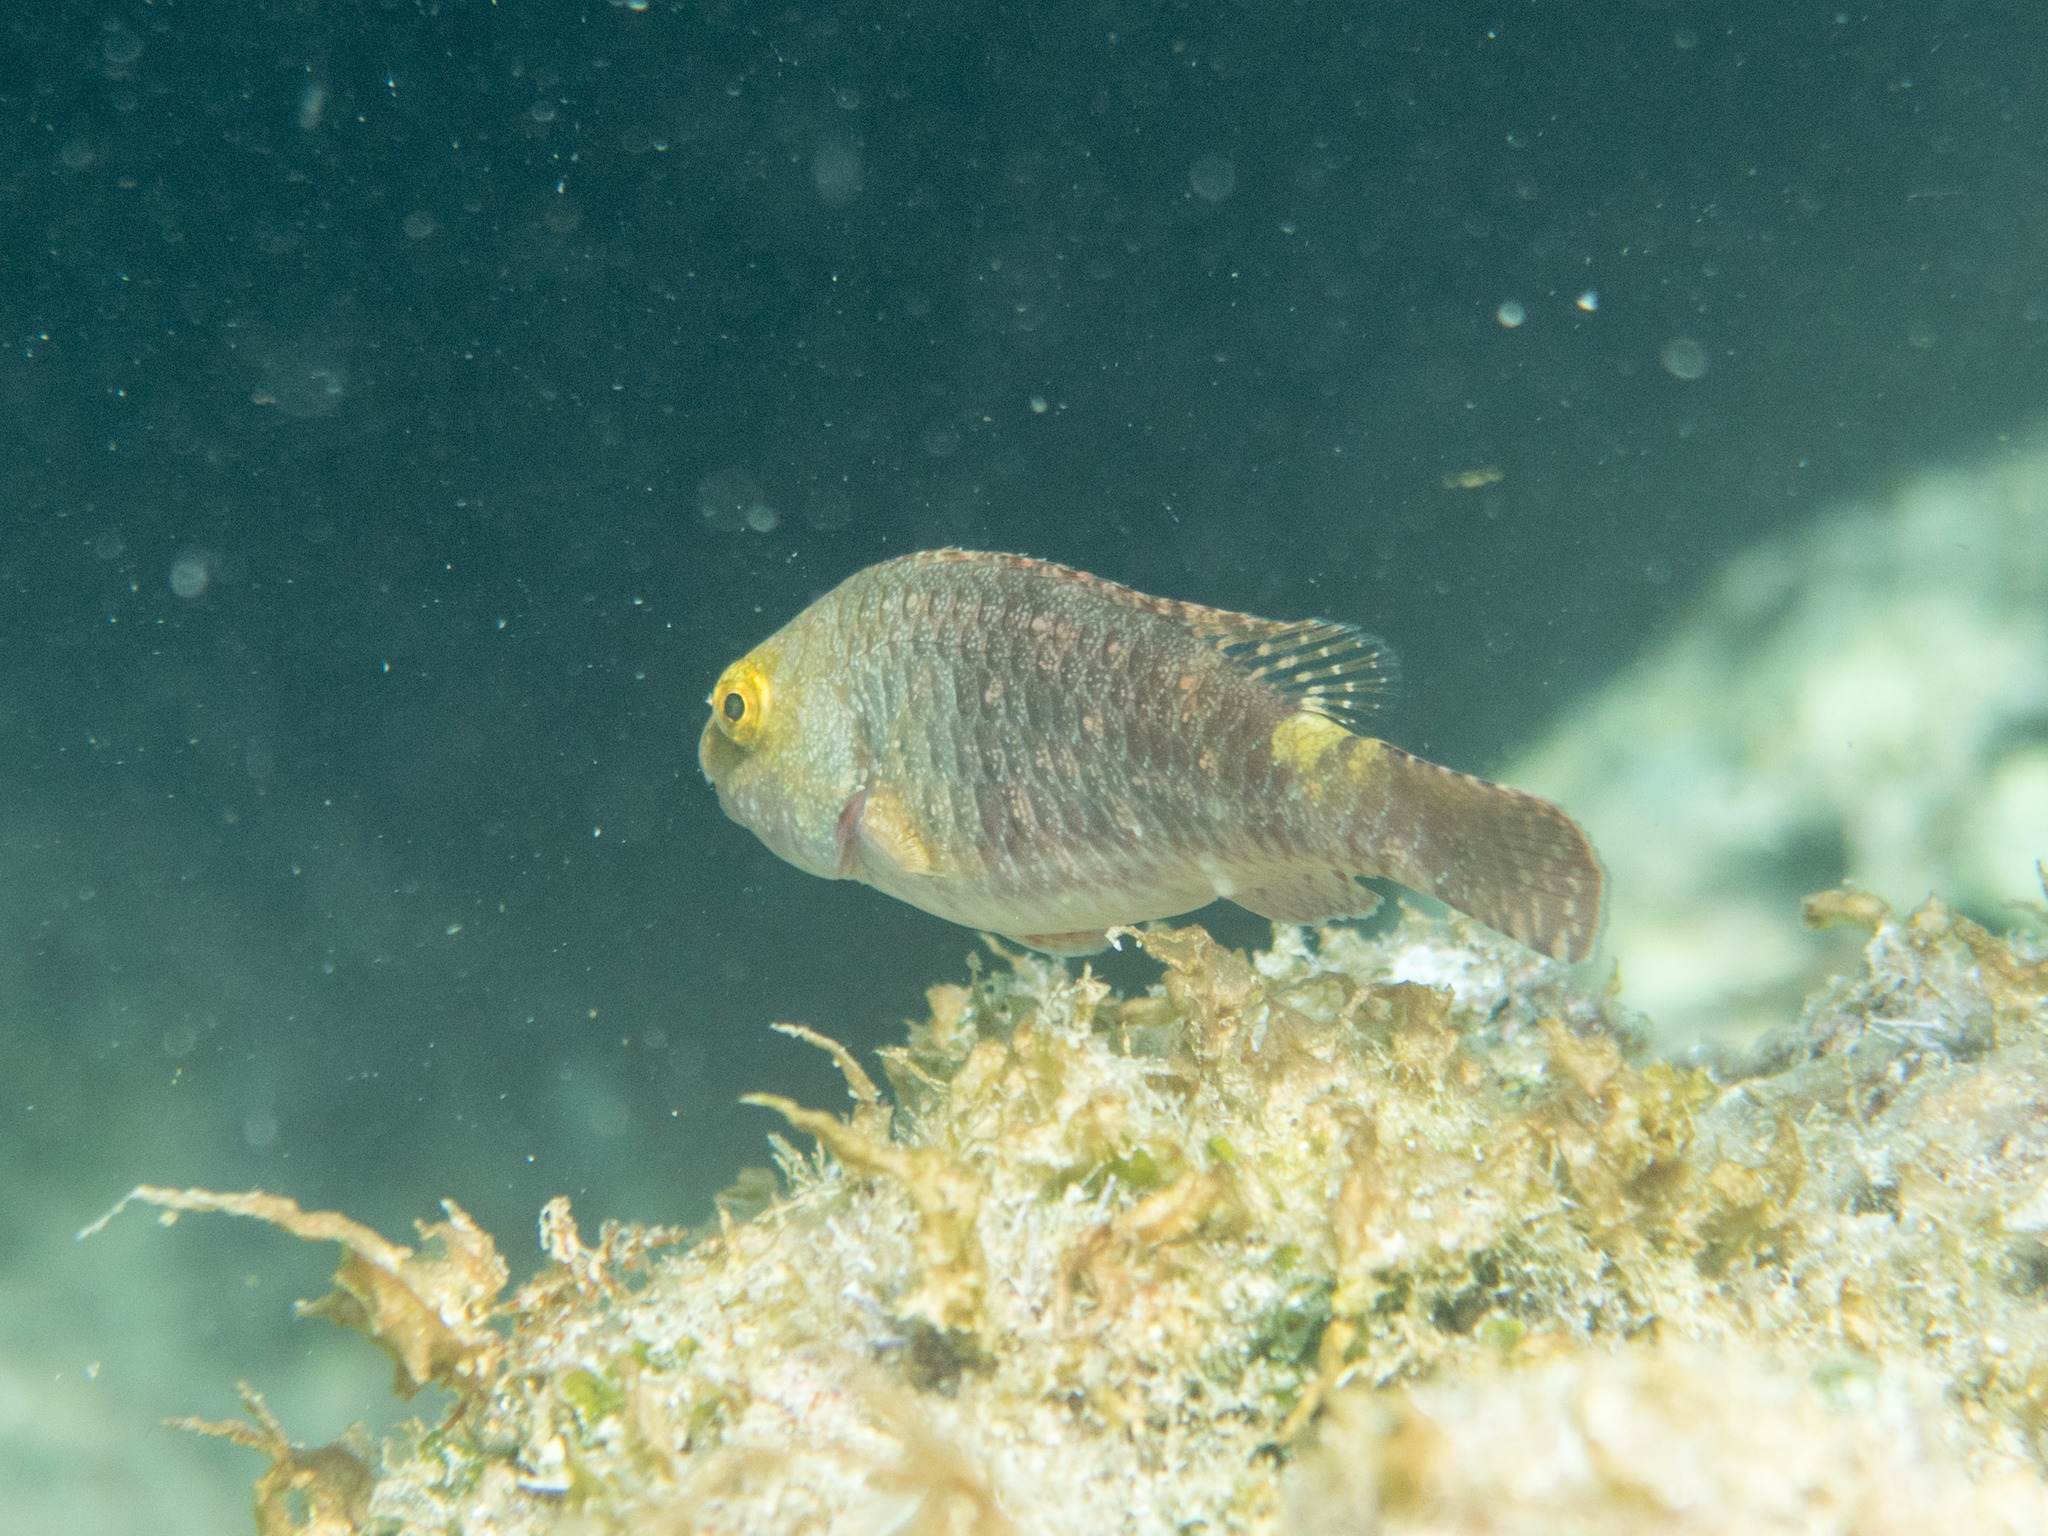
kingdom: Animalia
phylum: Chordata
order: Perciformes
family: Scaridae
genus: Sparisoma
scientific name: Sparisoma cretense
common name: Parrotfish
